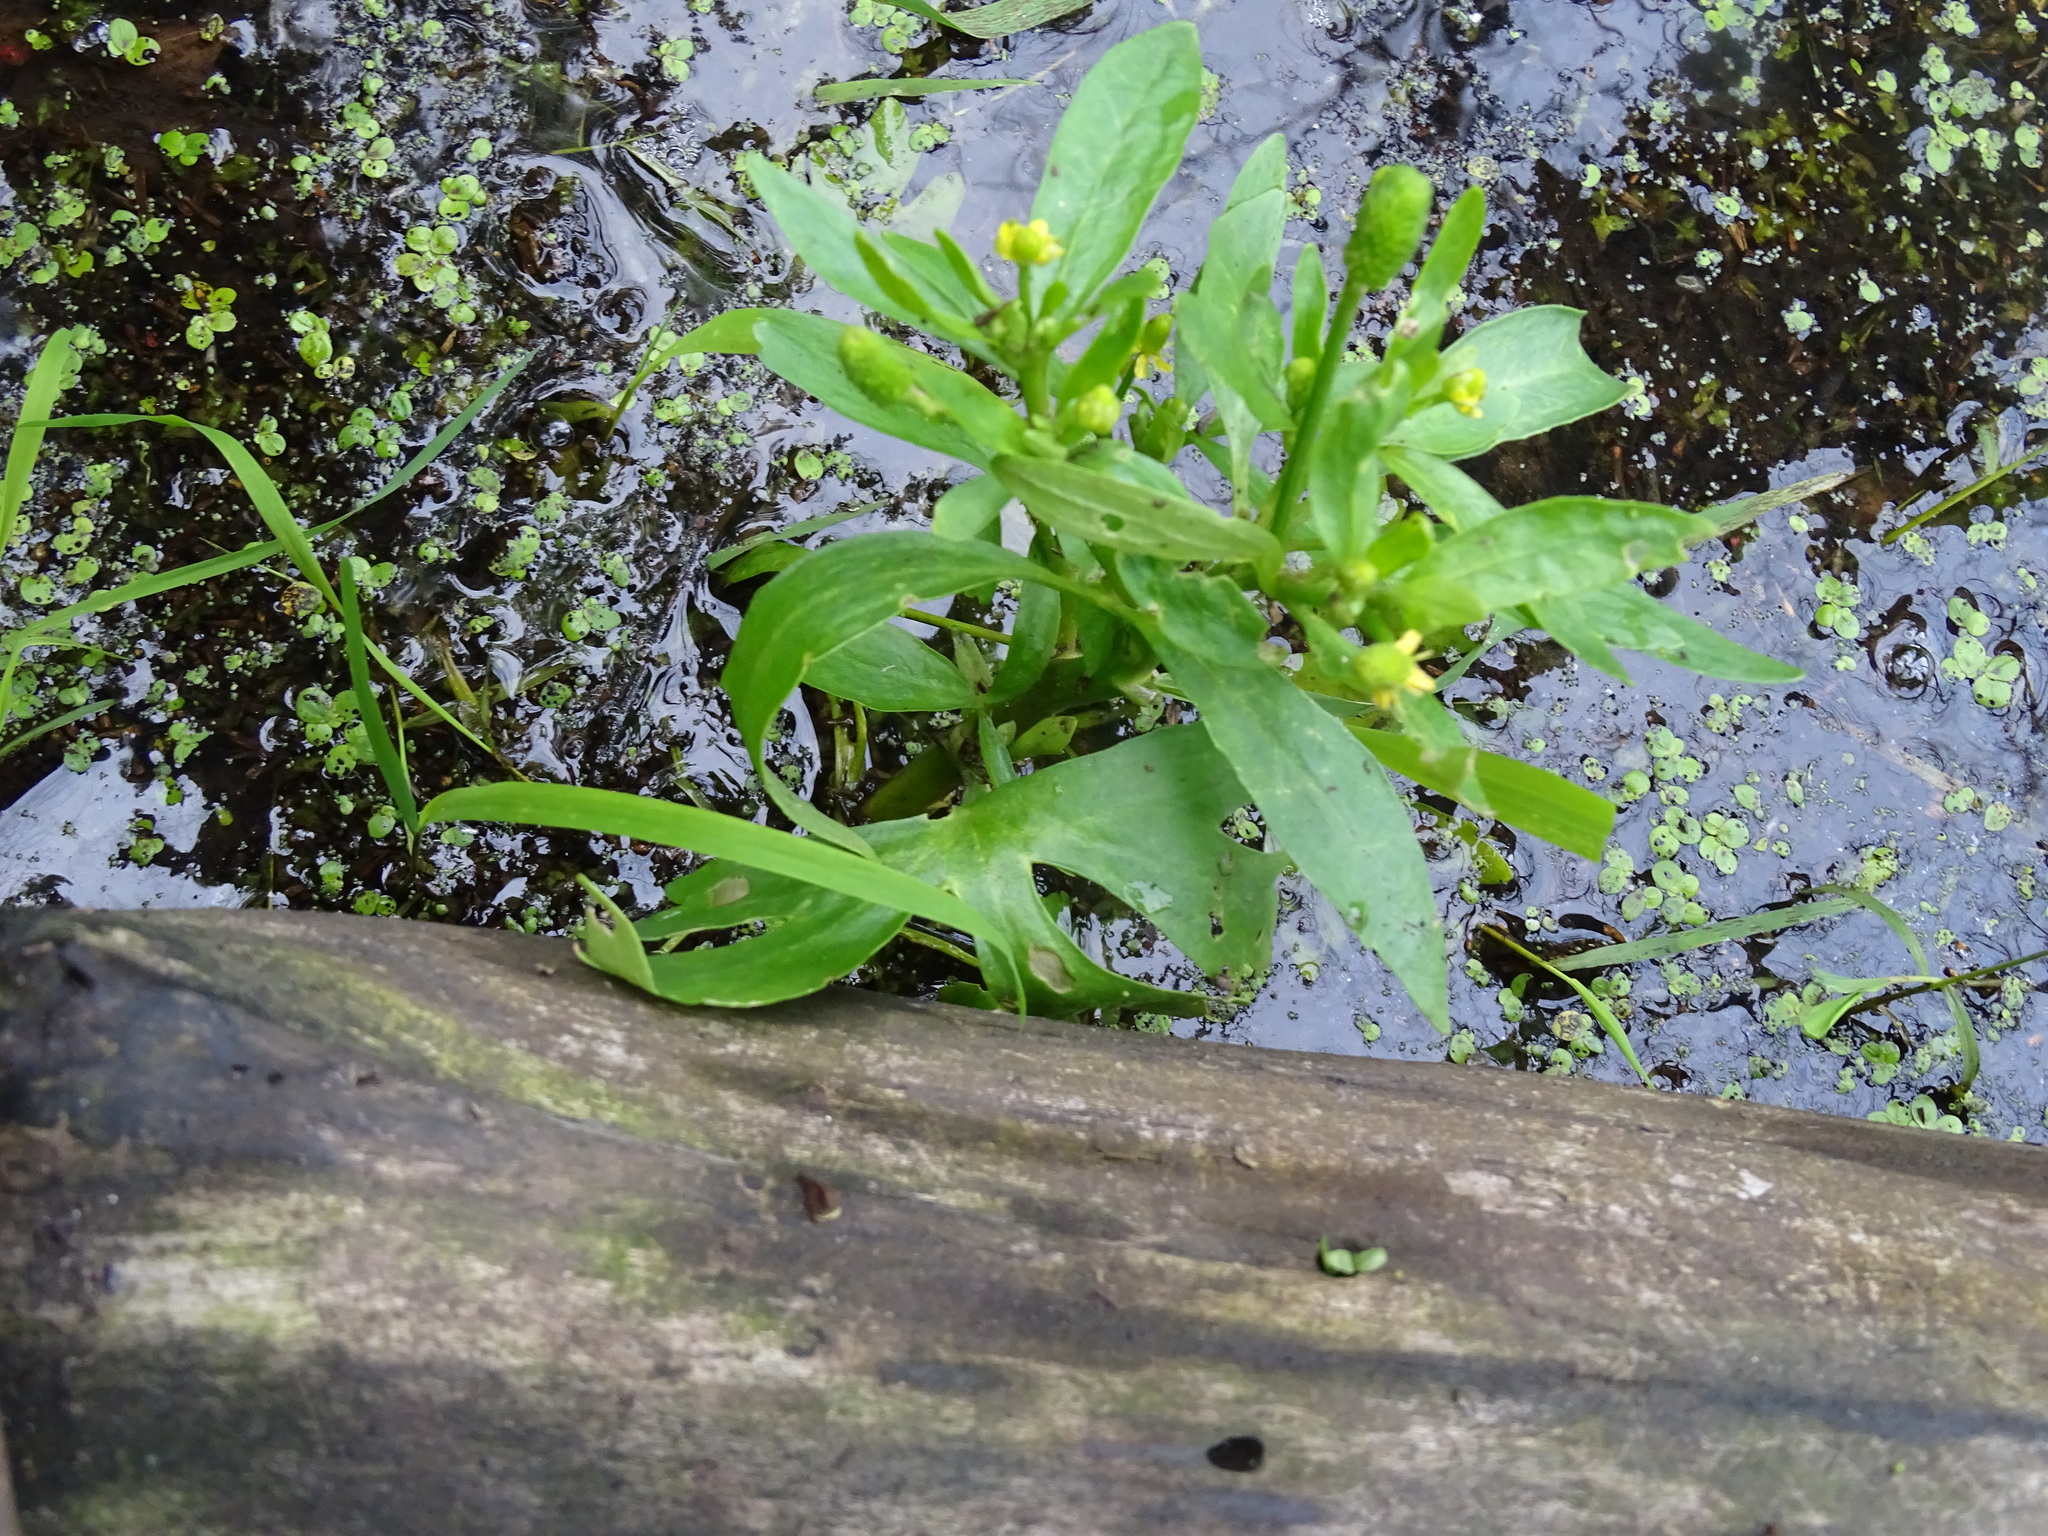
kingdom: Plantae
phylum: Tracheophyta
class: Magnoliopsida
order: Ranunculales
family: Ranunculaceae
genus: Ranunculus
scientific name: Ranunculus sceleratus
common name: Celery-leaved buttercup
